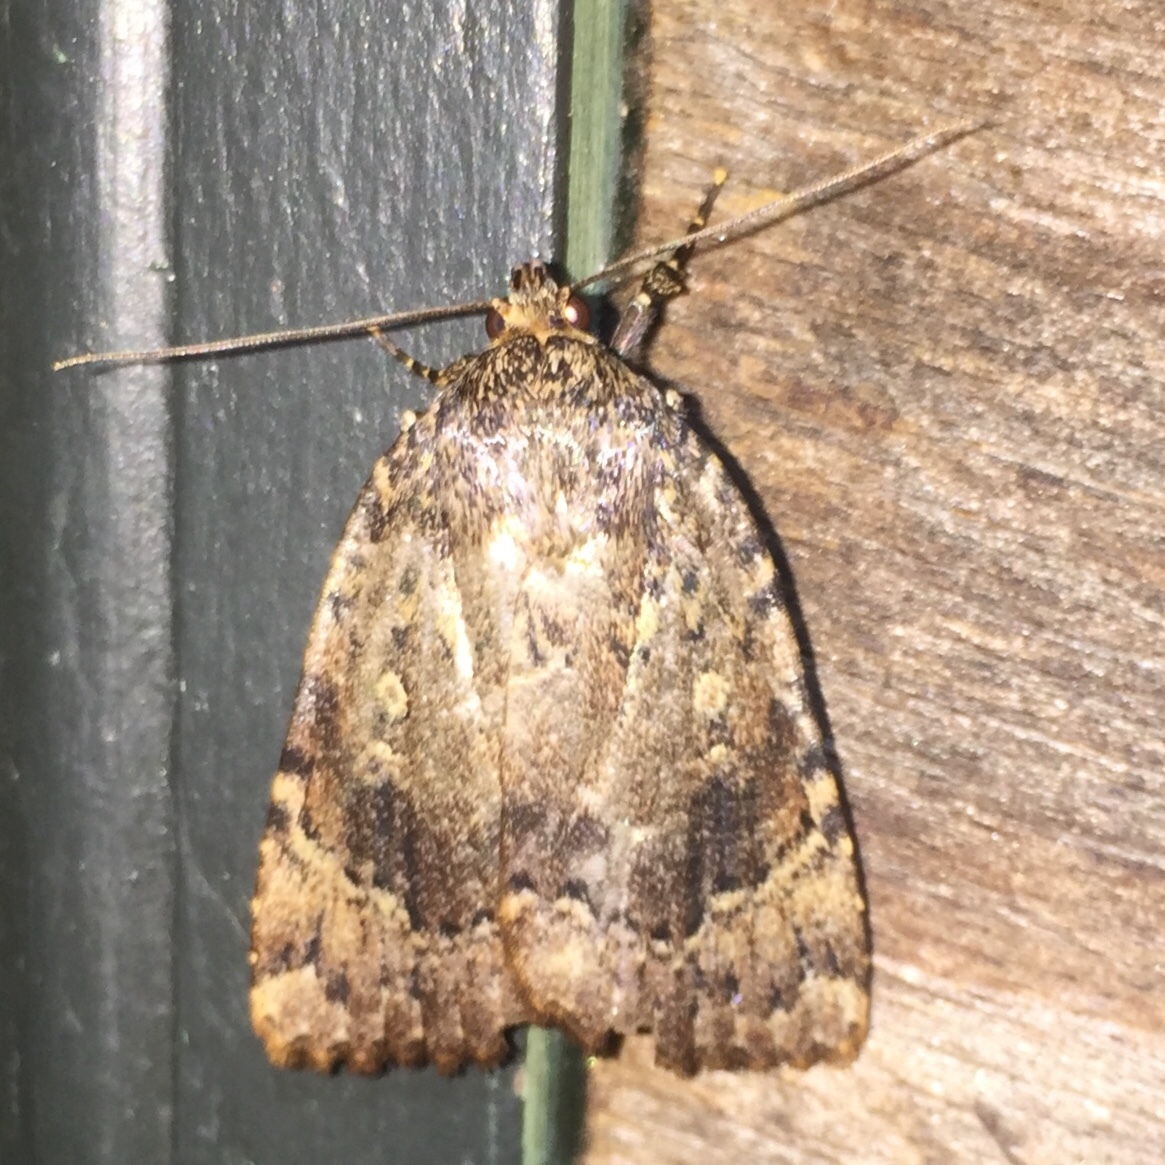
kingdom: Animalia
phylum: Arthropoda
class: Insecta
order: Lepidoptera
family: Noctuidae
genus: Amphipyra
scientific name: Amphipyra pyramidoides
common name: American copper underwing
